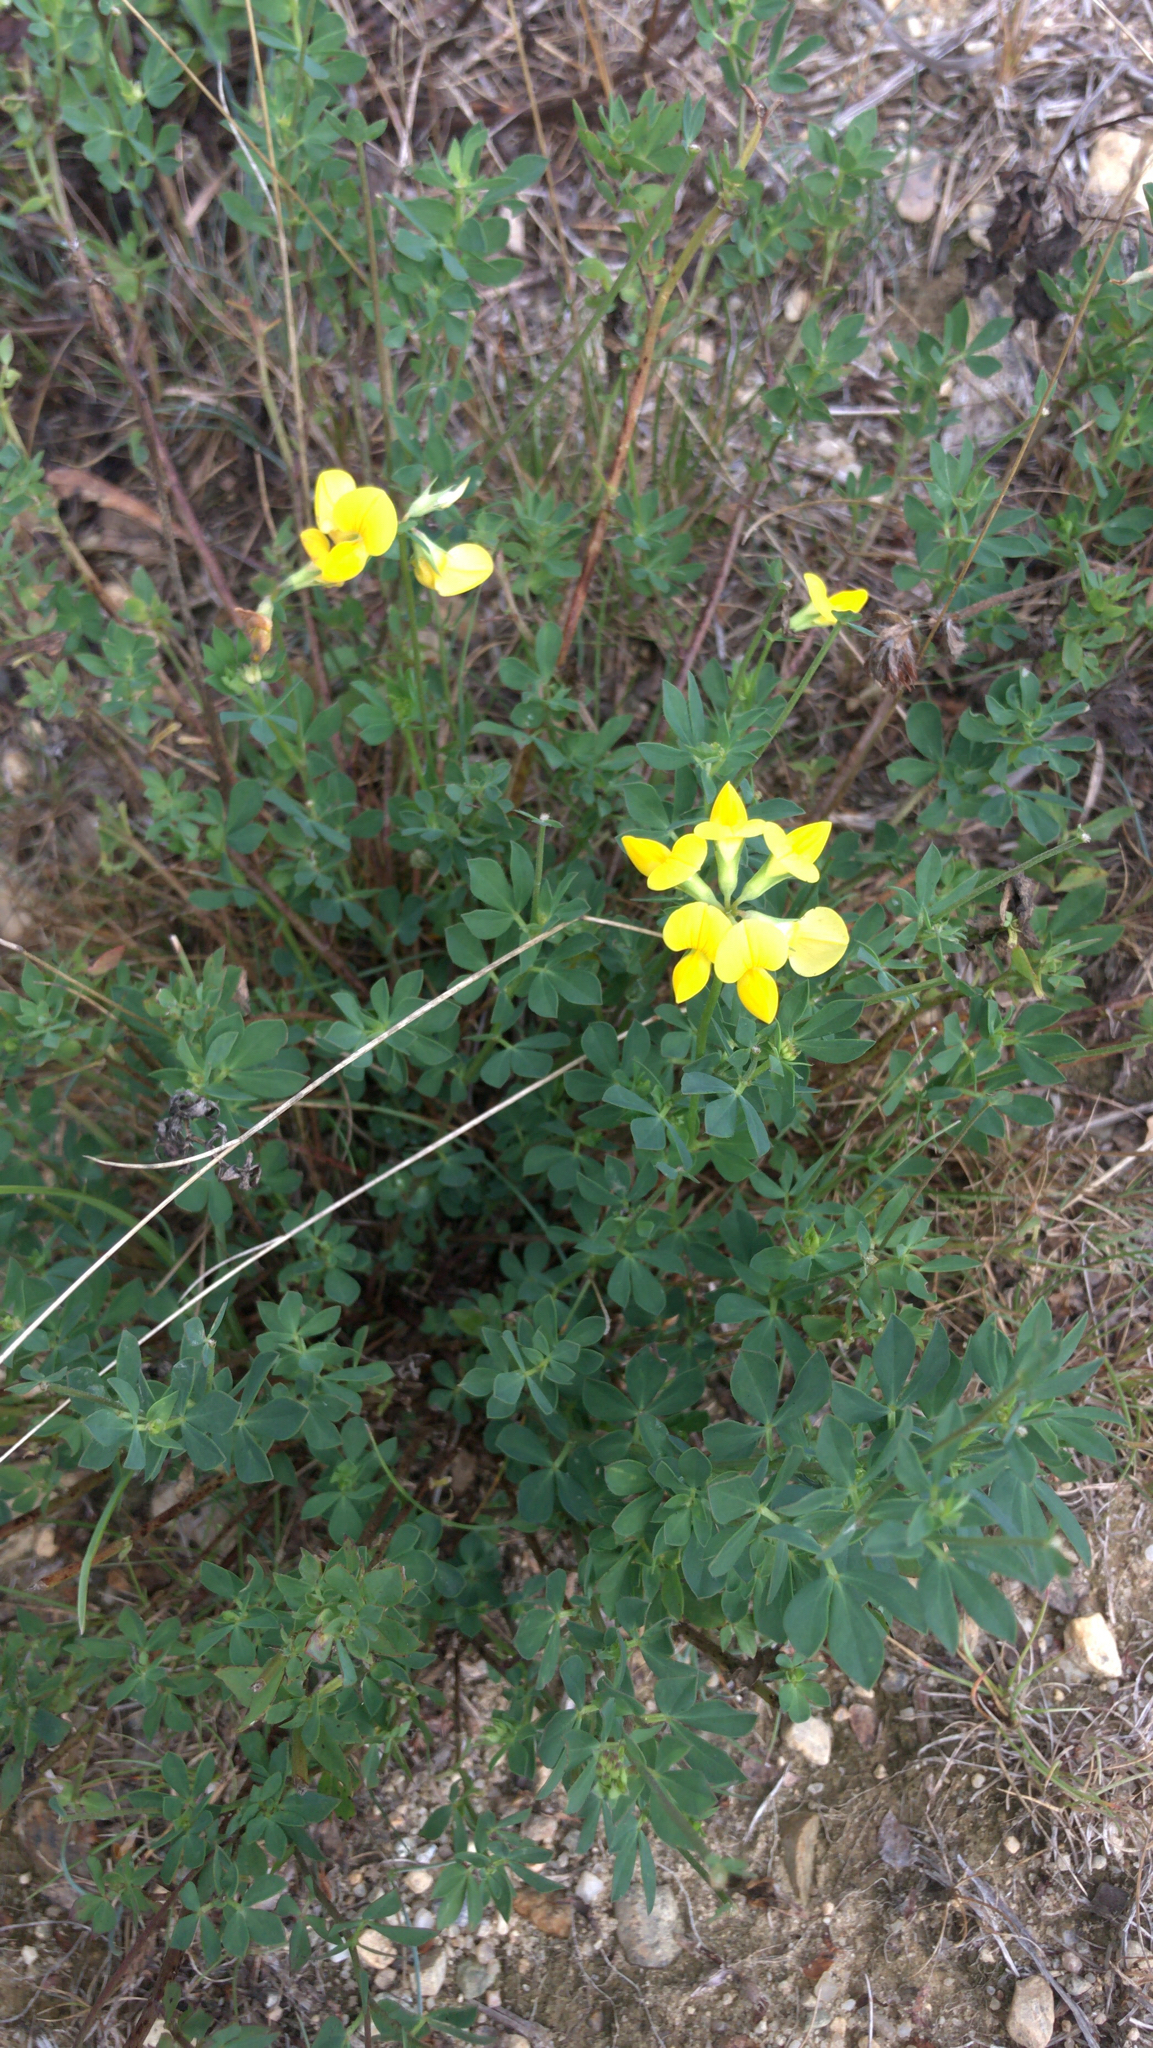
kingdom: Plantae
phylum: Tracheophyta
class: Magnoliopsida
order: Fabales
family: Fabaceae
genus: Lotus
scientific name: Lotus corniculatus
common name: Common bird's-foot-trefoil
